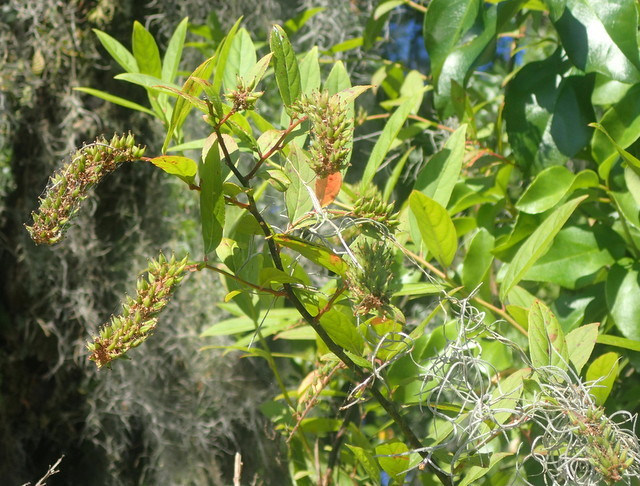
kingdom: Plantae
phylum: Tracheophyta
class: Magnoliopsida
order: Saxifragales
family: Iteaceae
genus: Itea
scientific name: Itea virginica
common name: Sweetspire
